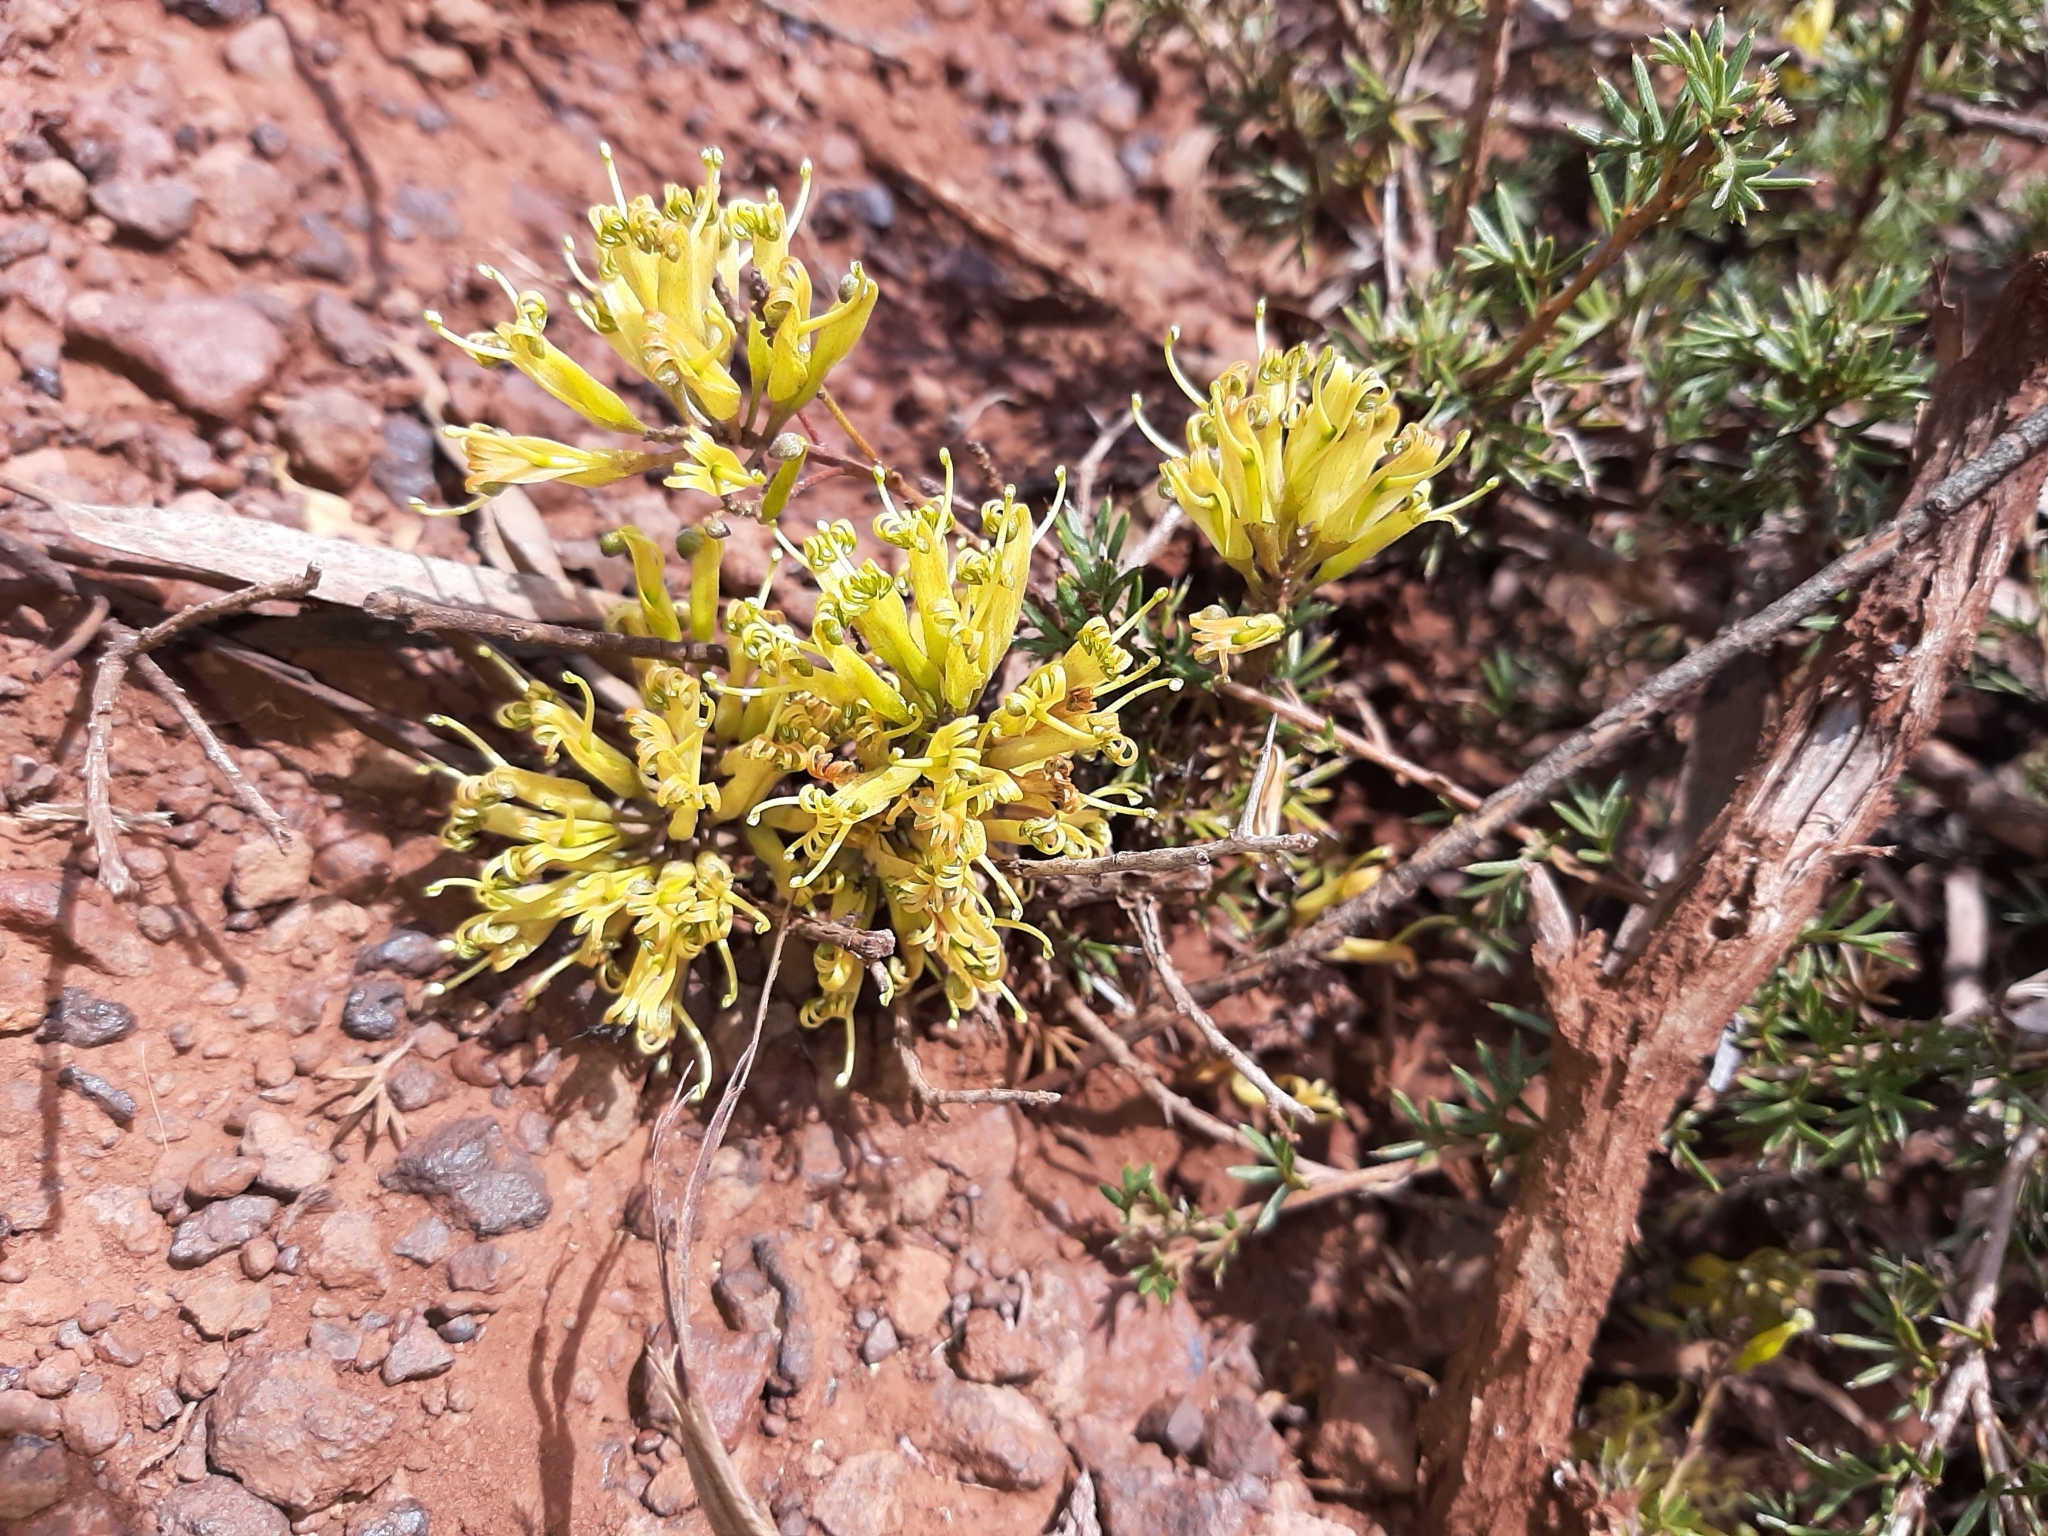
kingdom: Plantae
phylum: Tracheophyta
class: Magnoliopsida
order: Proteales
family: Proteaceae
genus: Grevillea
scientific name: Grevillea huegelii
